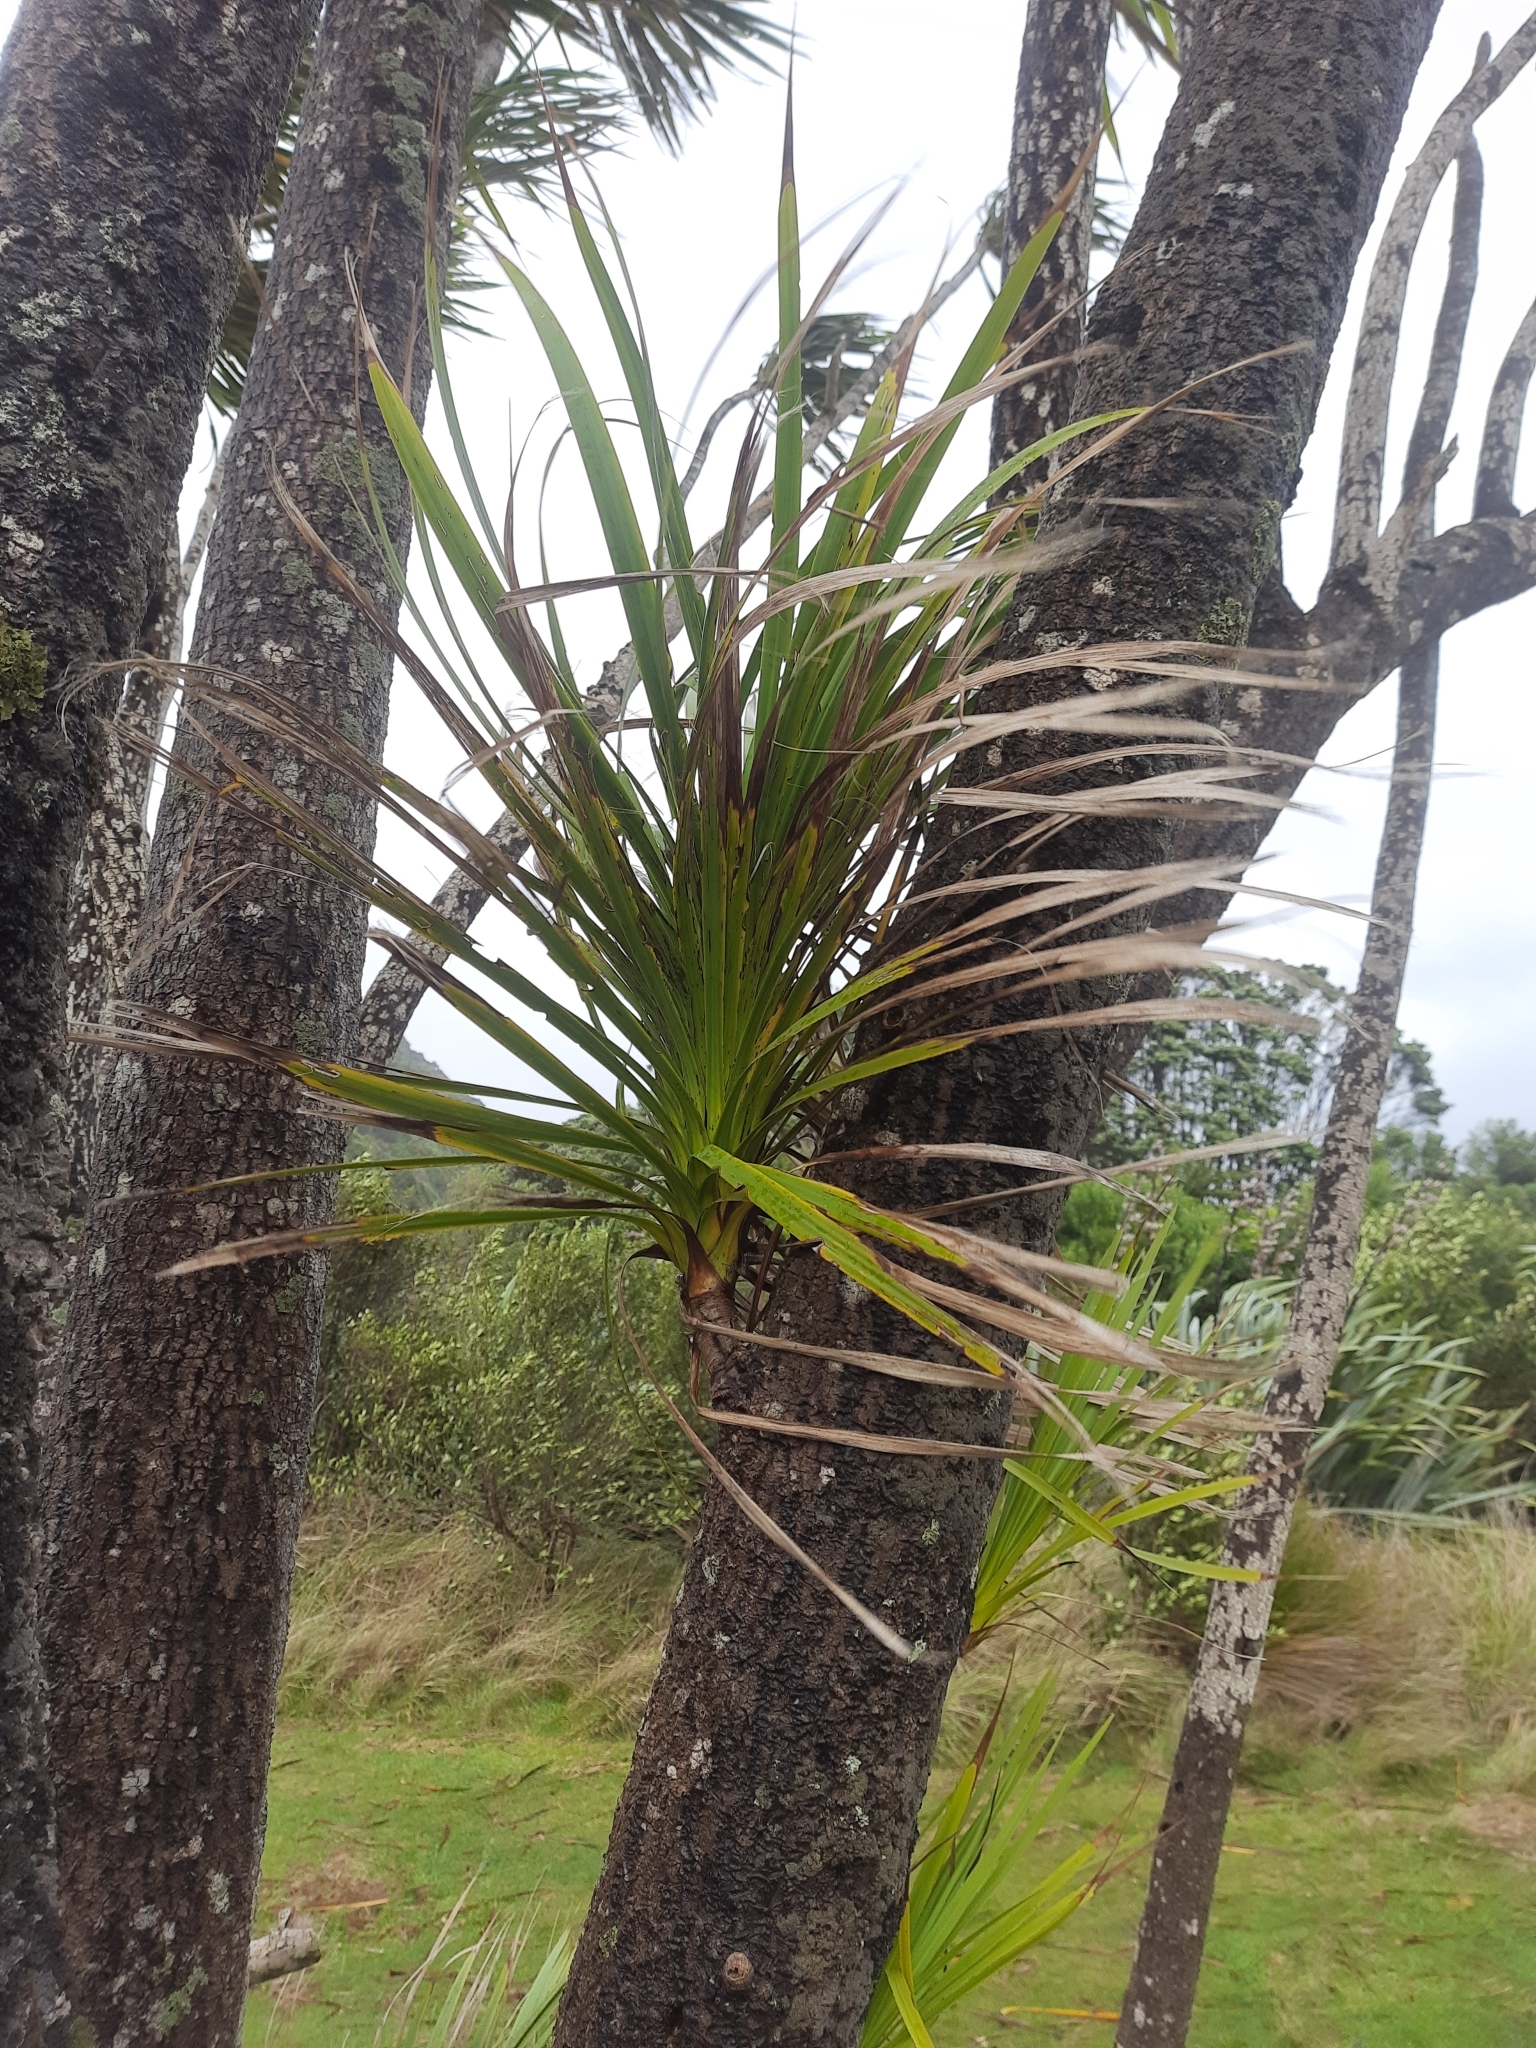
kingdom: Plantae
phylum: Tracheophyta
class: Liliopsida
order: Asparagales
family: Asparagaceae
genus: Cordyline
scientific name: Cordyline australis
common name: Cabbage-palm
